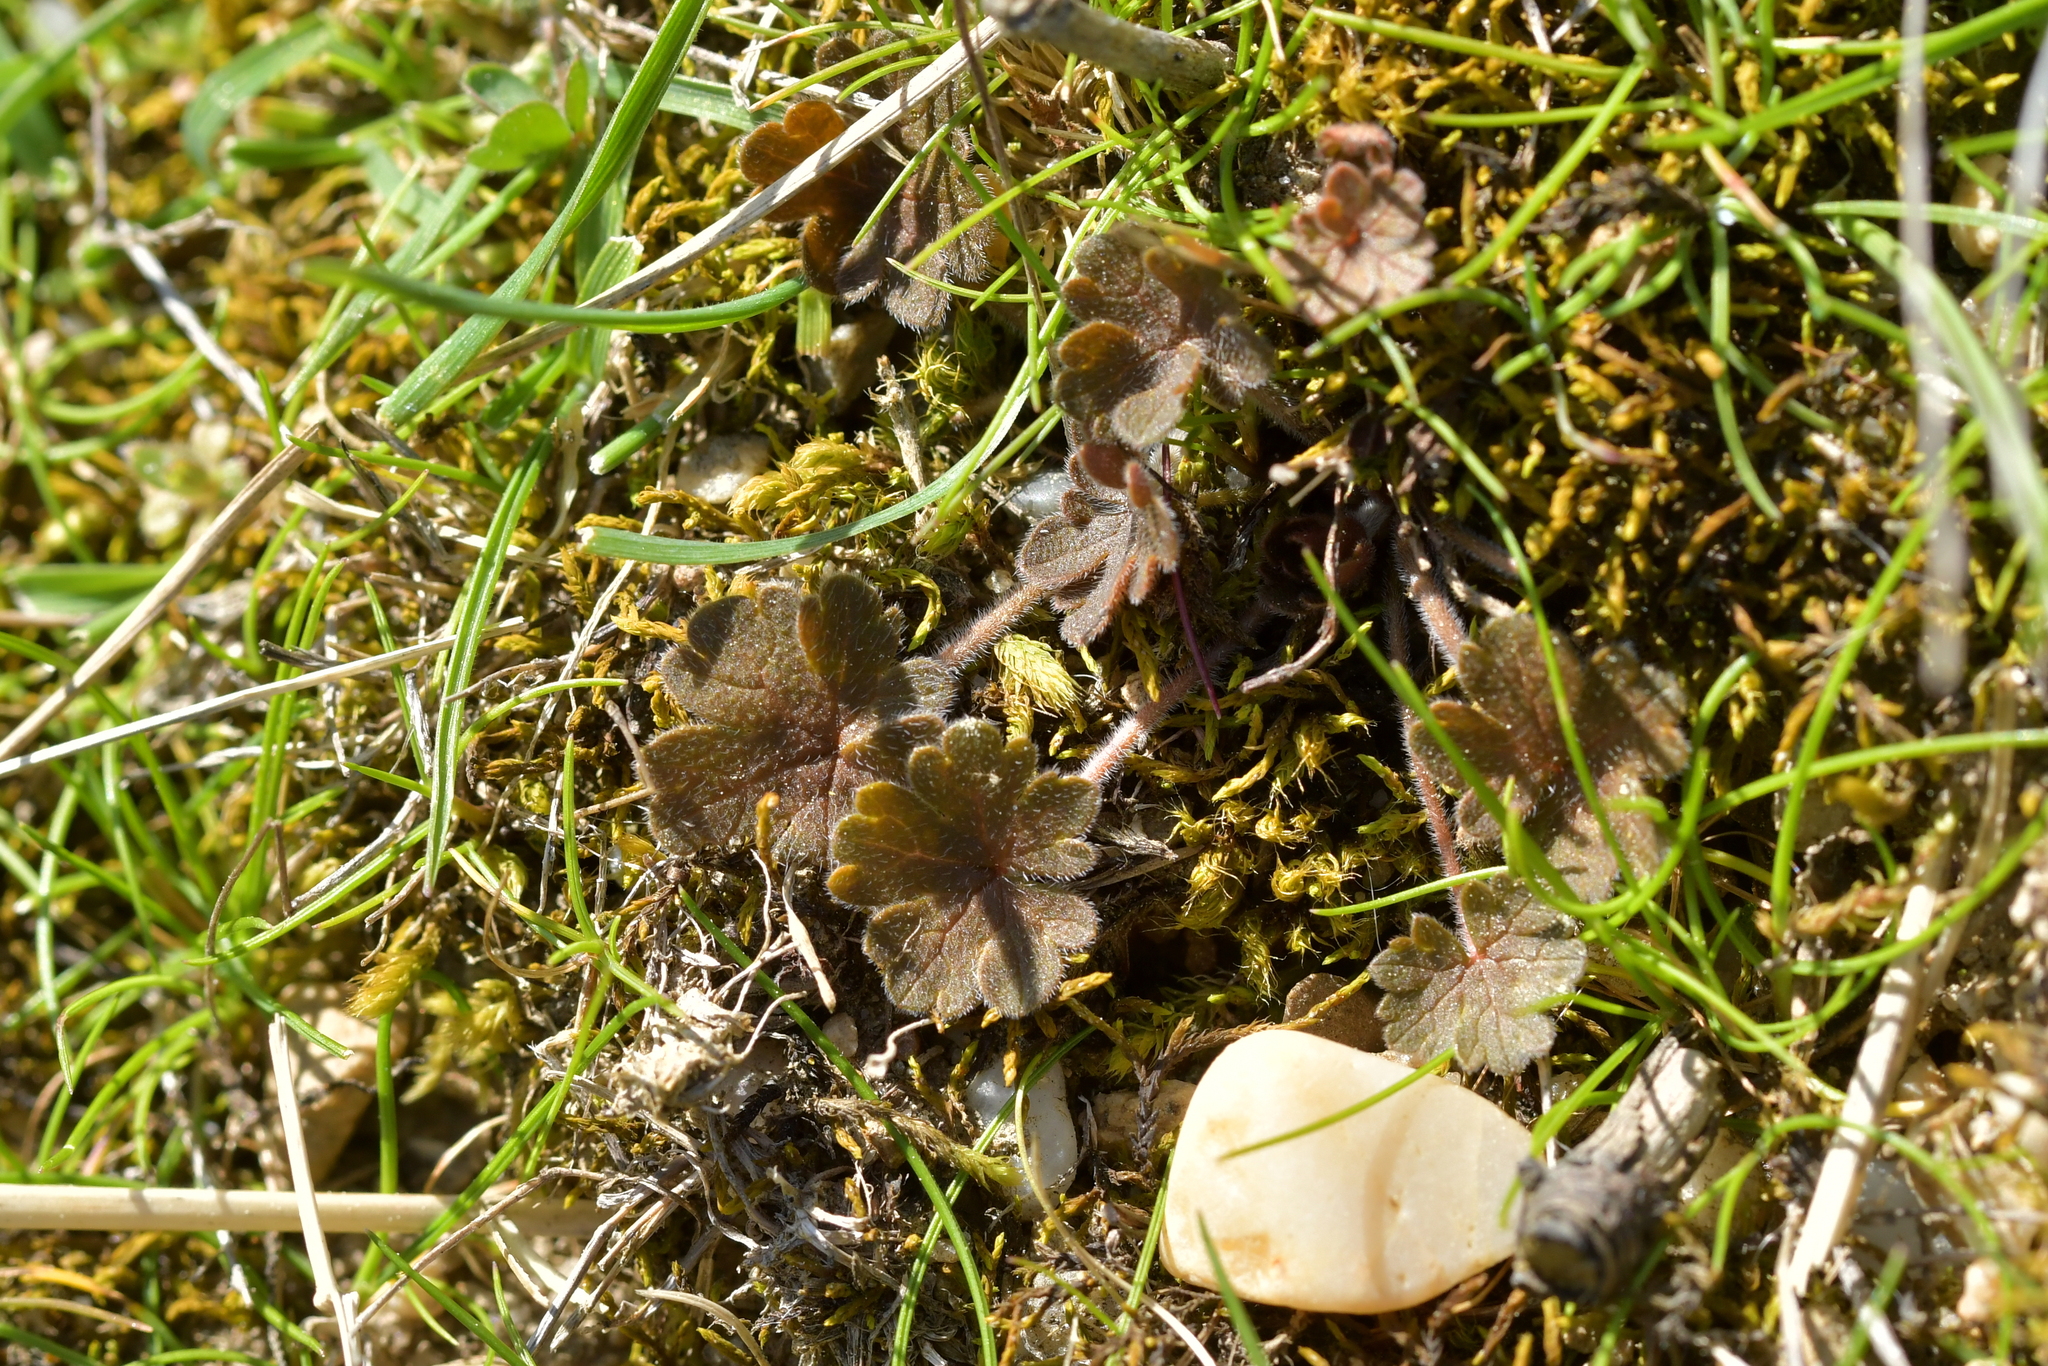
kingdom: Plantae
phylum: Tracheophyta
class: Magnoliopsida
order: Geraniales
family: Geraniaceae
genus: Geranium
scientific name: Geranium brevicaule
